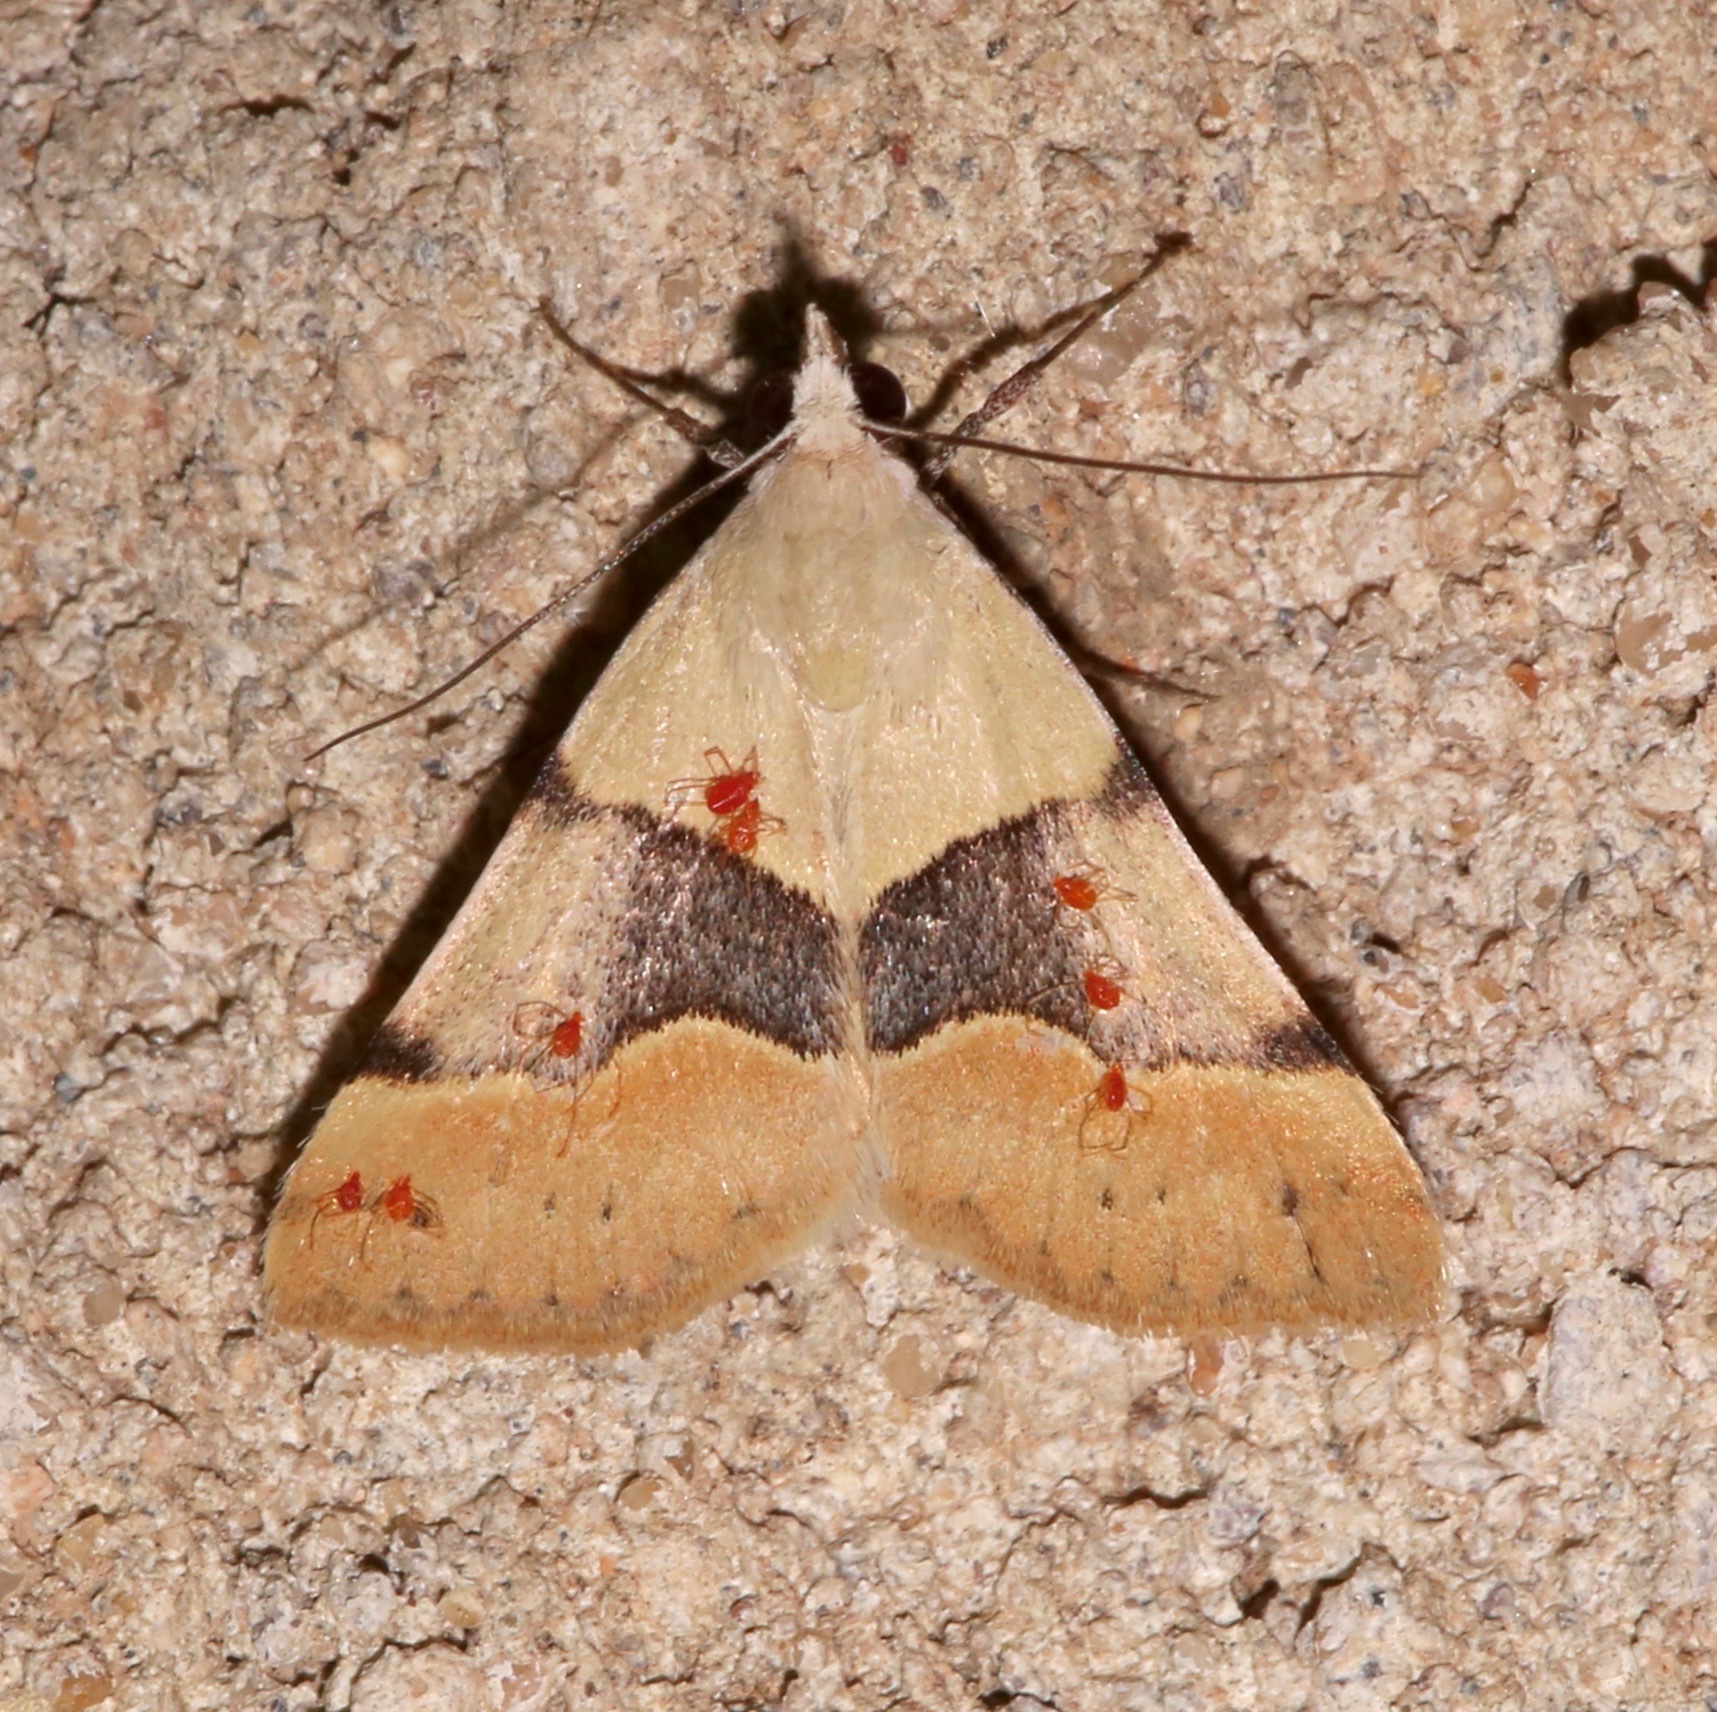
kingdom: Animalia
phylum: Arthropoda
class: Insecta
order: Lepidoptera
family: Erebidae
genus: Hemeroplanis
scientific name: Hemeroplanis incusalis
